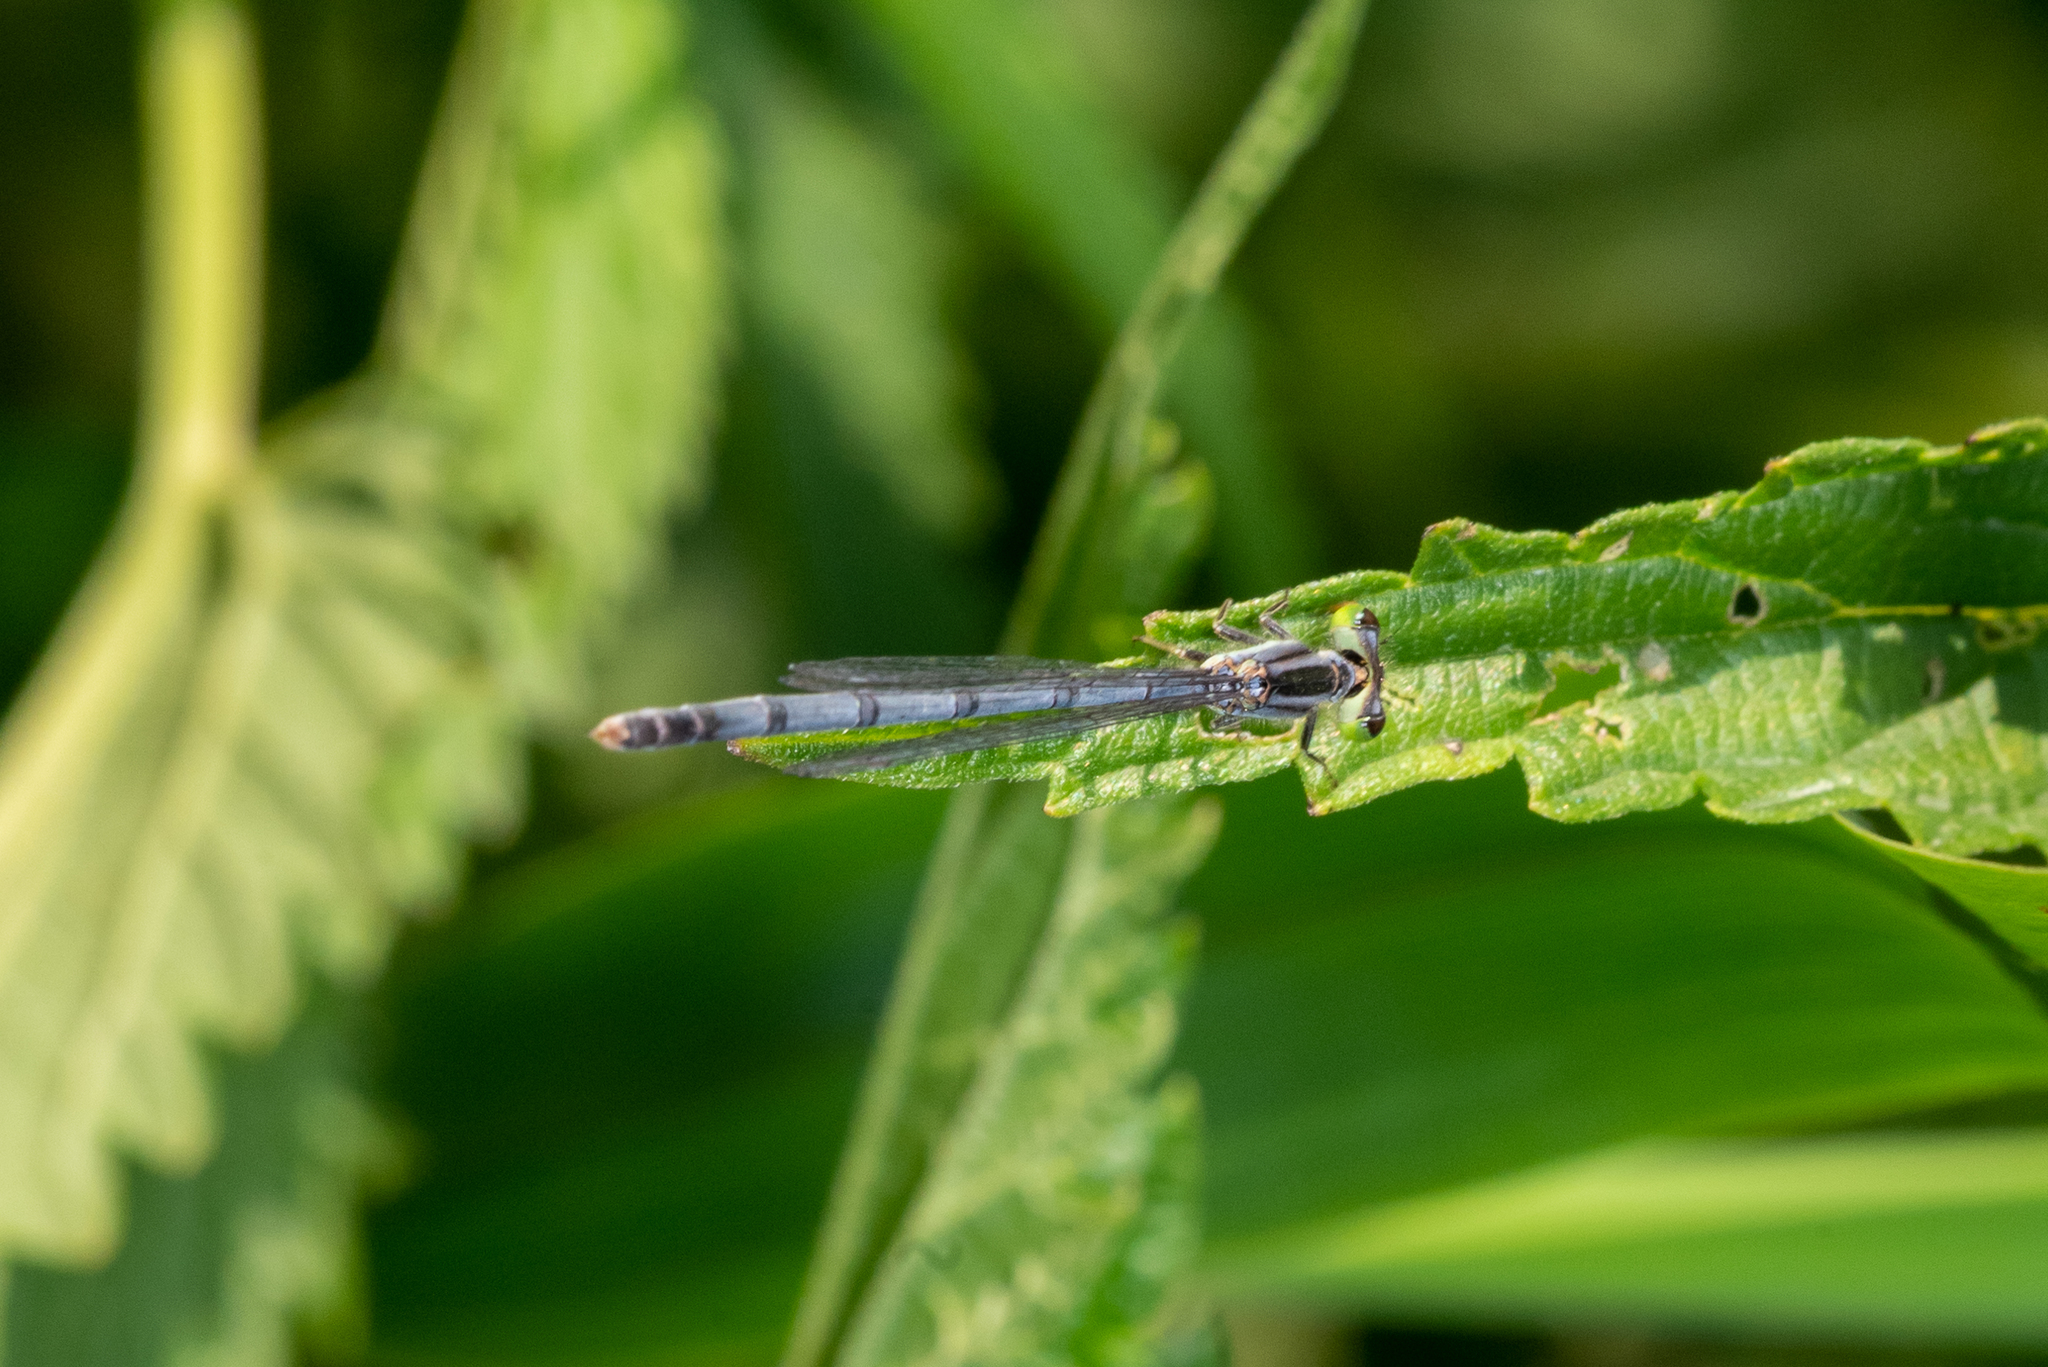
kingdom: Animalia
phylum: Arthropoda
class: Insecta
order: Odonata
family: Coenagrionidae
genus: Ischnura
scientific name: Ischnura verticalis
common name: Eastern forktail
